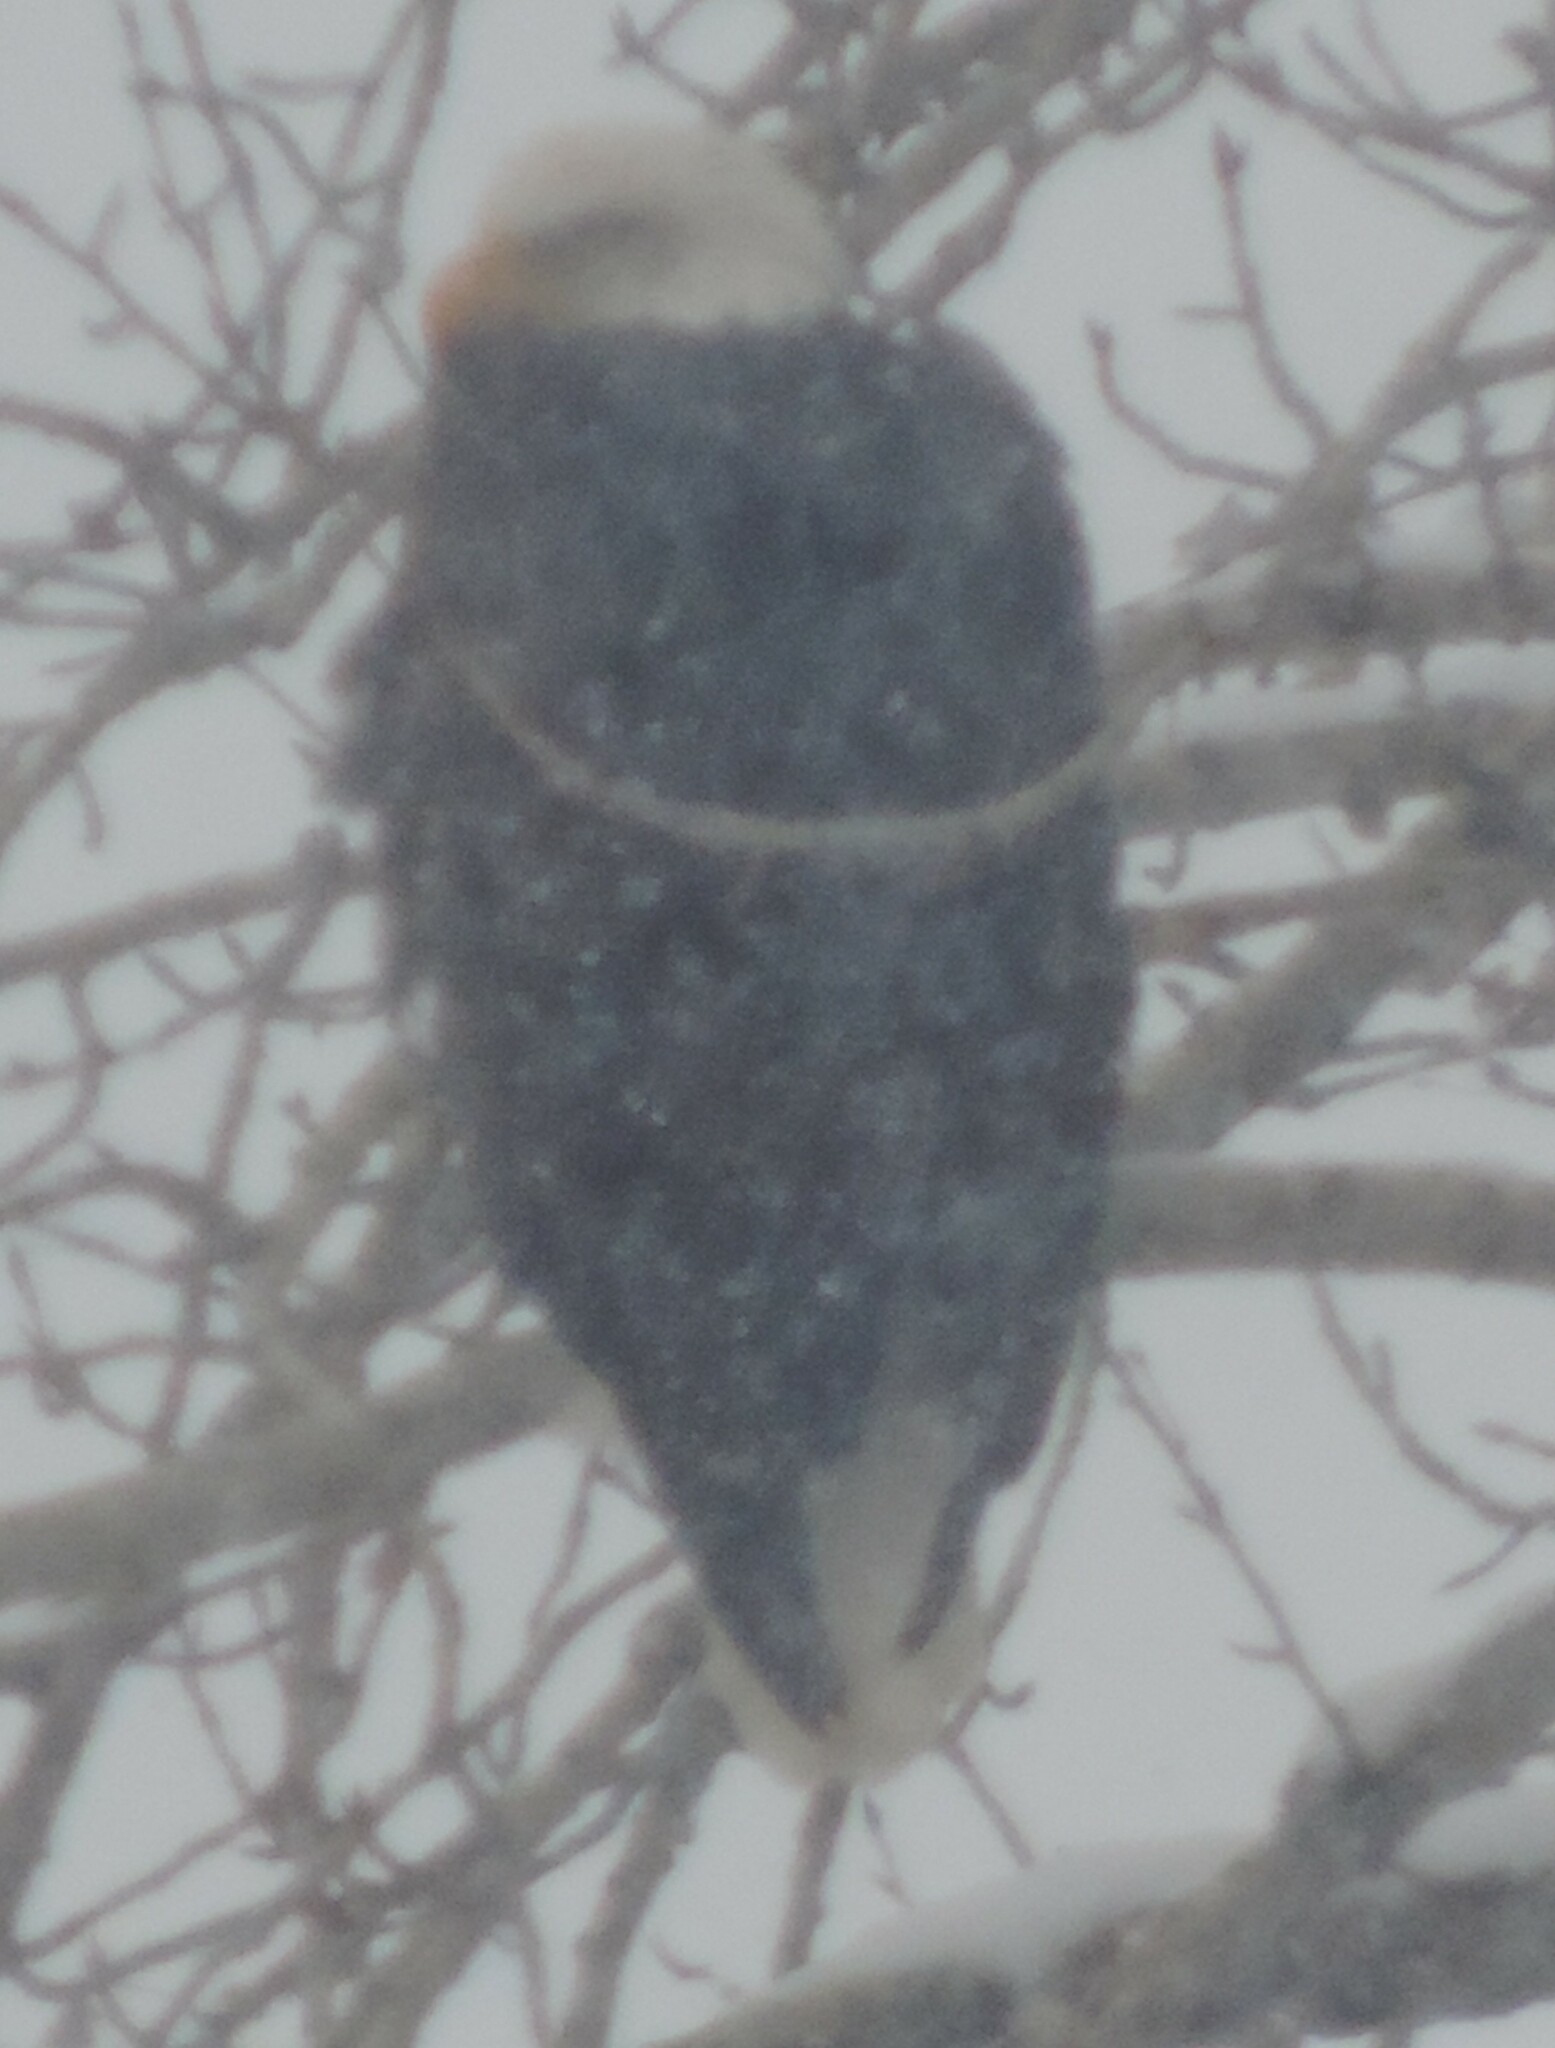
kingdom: Animalia
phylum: Chordata
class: Aves
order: Accipitriformes
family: Accipitridae
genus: Haliaeetus
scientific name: Haliaeetus leucocephalus
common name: Bald eagle
